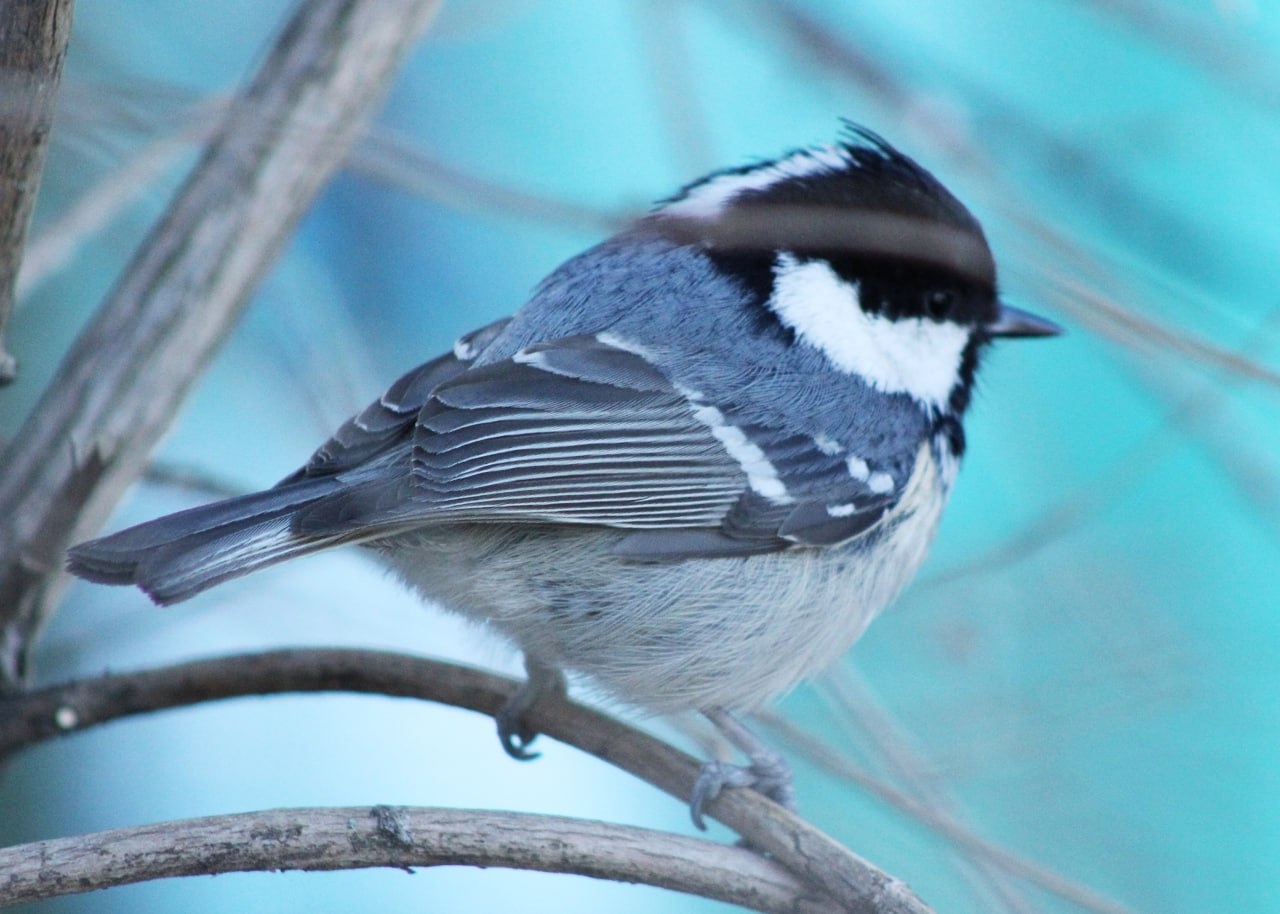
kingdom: Animalia
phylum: Chordata
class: Aves
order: Passeriformes
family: Paridae
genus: Periparus
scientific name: Periparus ater
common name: Coal tit
